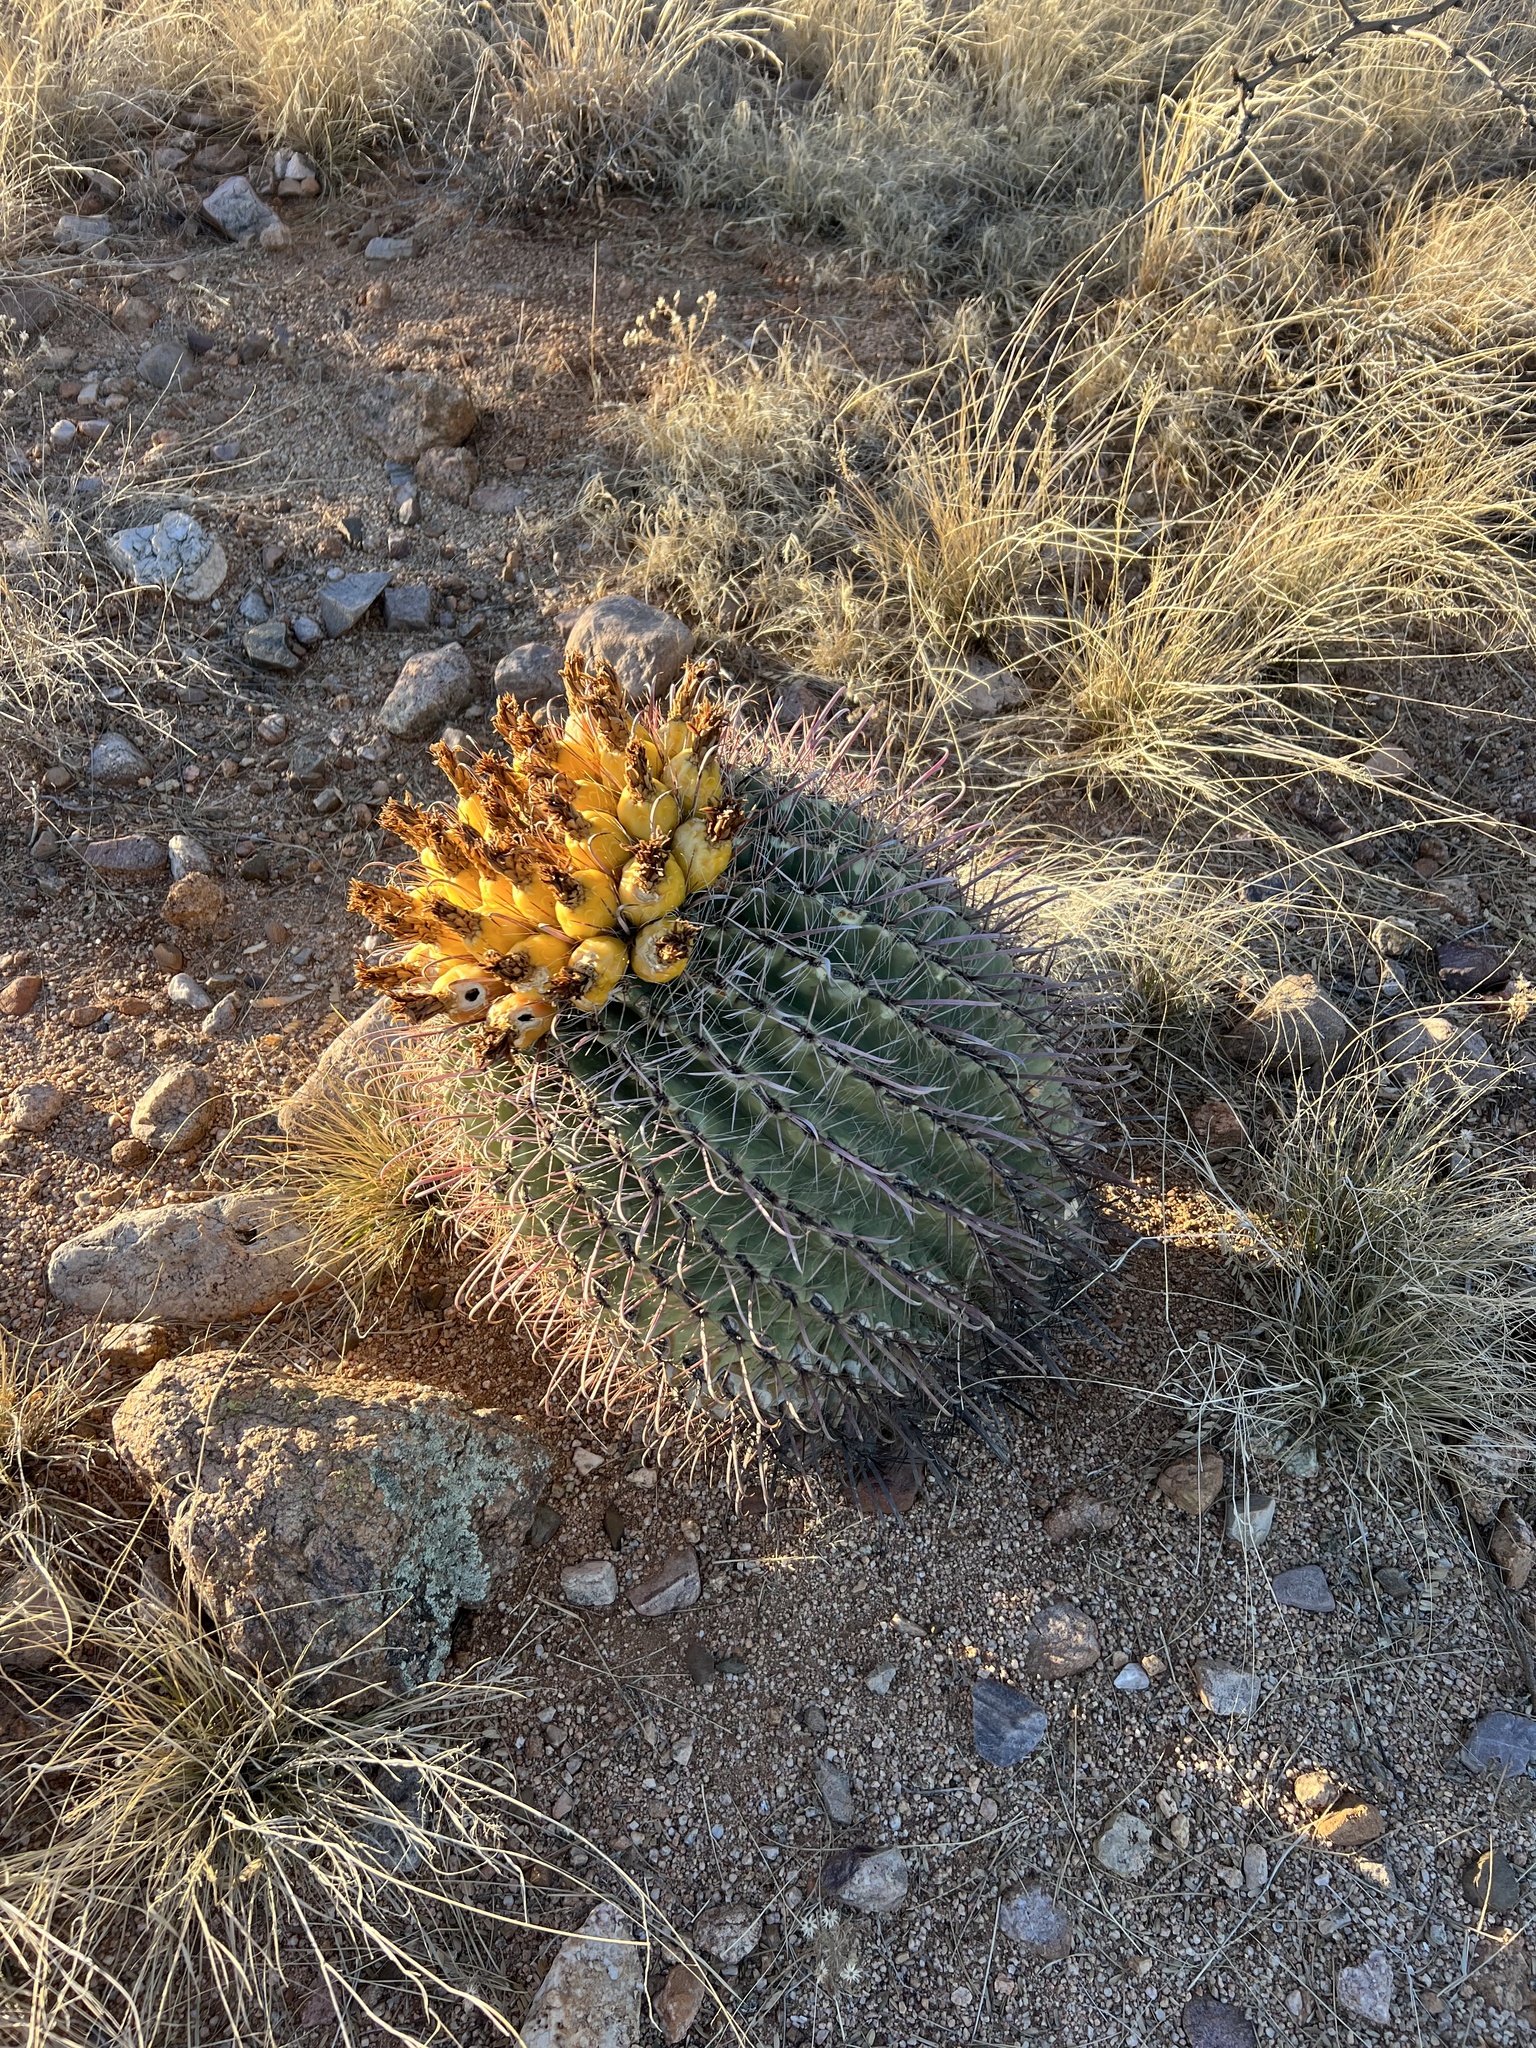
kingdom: Plantae
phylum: Tracheophyta
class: Magnoliopsida
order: Caryophyllales
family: Cactaceae
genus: Ferocactus
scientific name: Ferocactus wislizeni
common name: Candy barrel cactus
